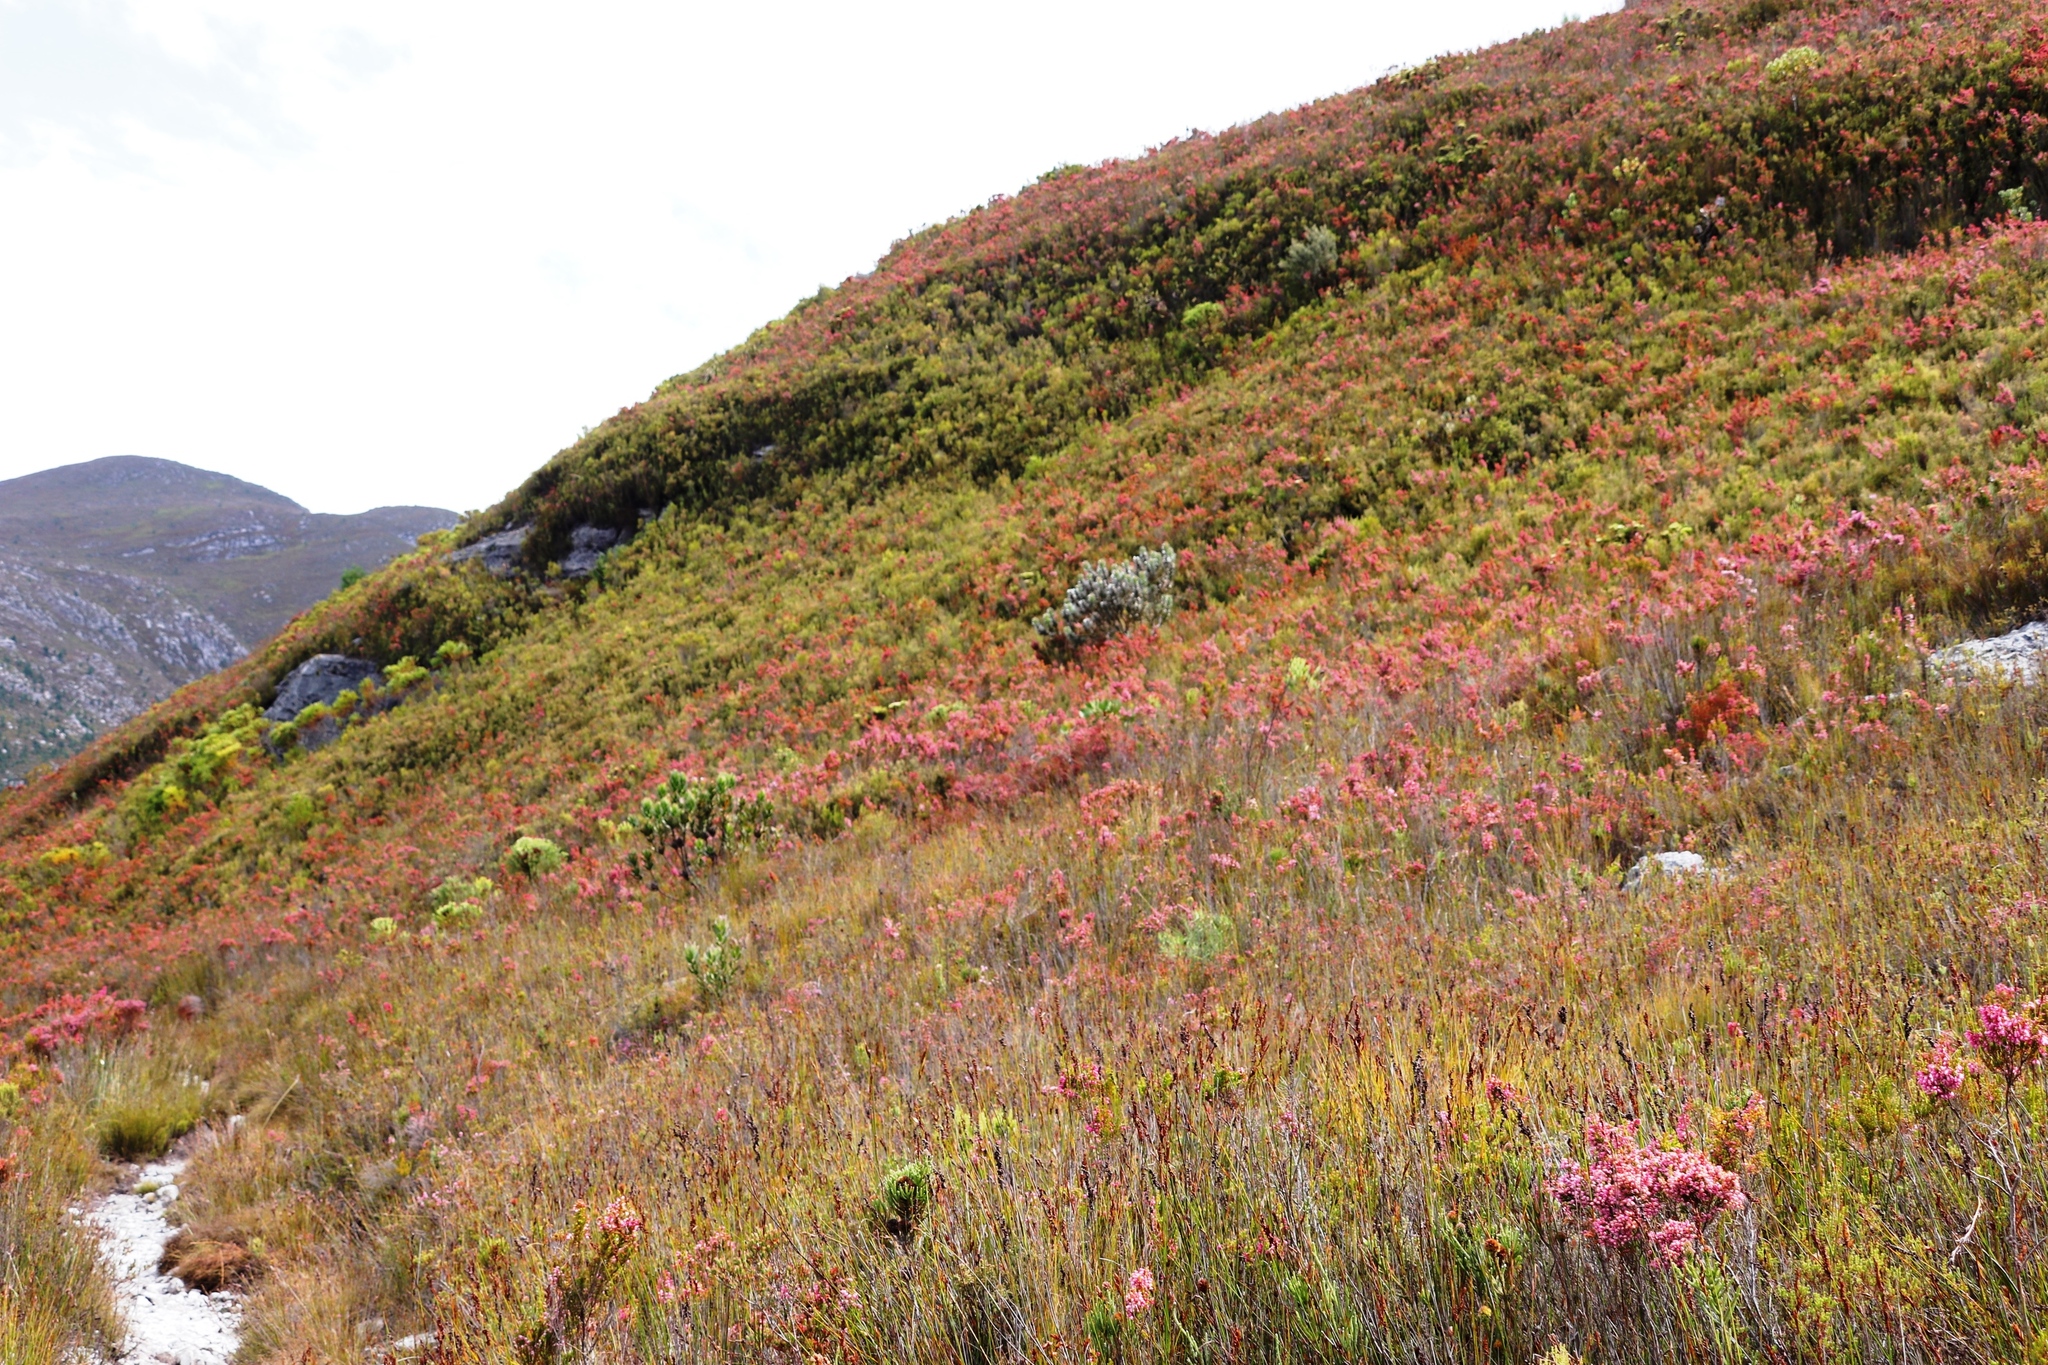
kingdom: Plantae
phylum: Tracheophyta
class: Magnoliopsida
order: Proteales
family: Proteaceae
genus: Mimetes
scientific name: Mimetes argenteus
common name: Silver pagoda
